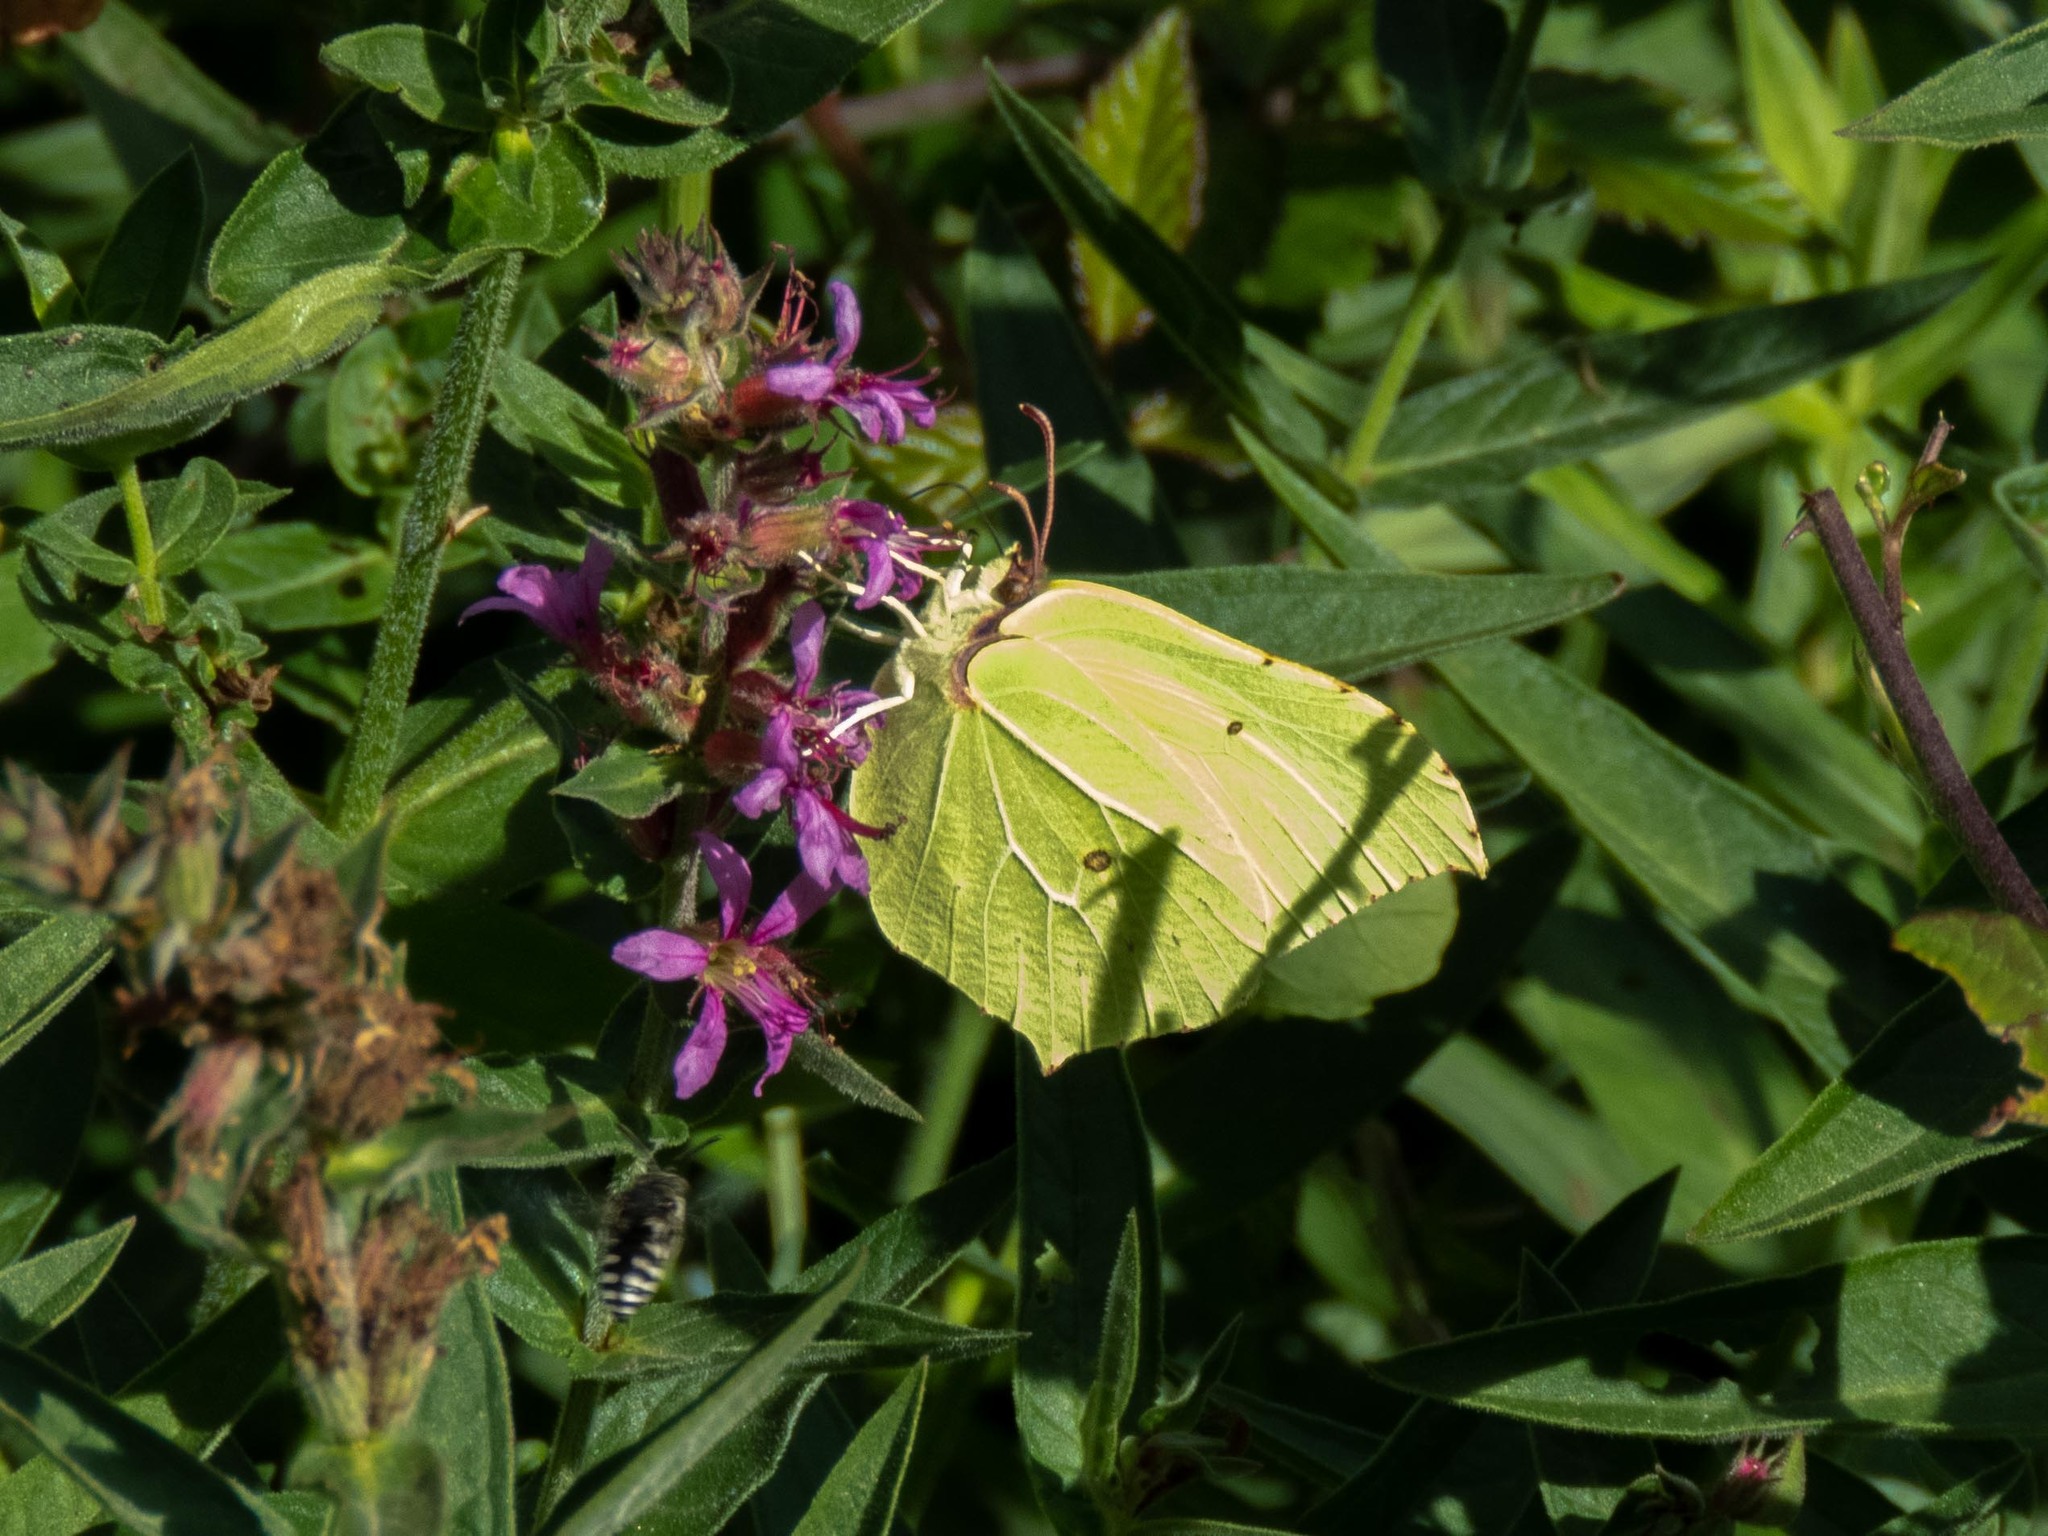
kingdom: Animalia
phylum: Arthropoda
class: Insecta
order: Lepidoptera
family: Pieridae
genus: Gonepteryx
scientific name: Gonepteryx rhamni
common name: Brimstone
